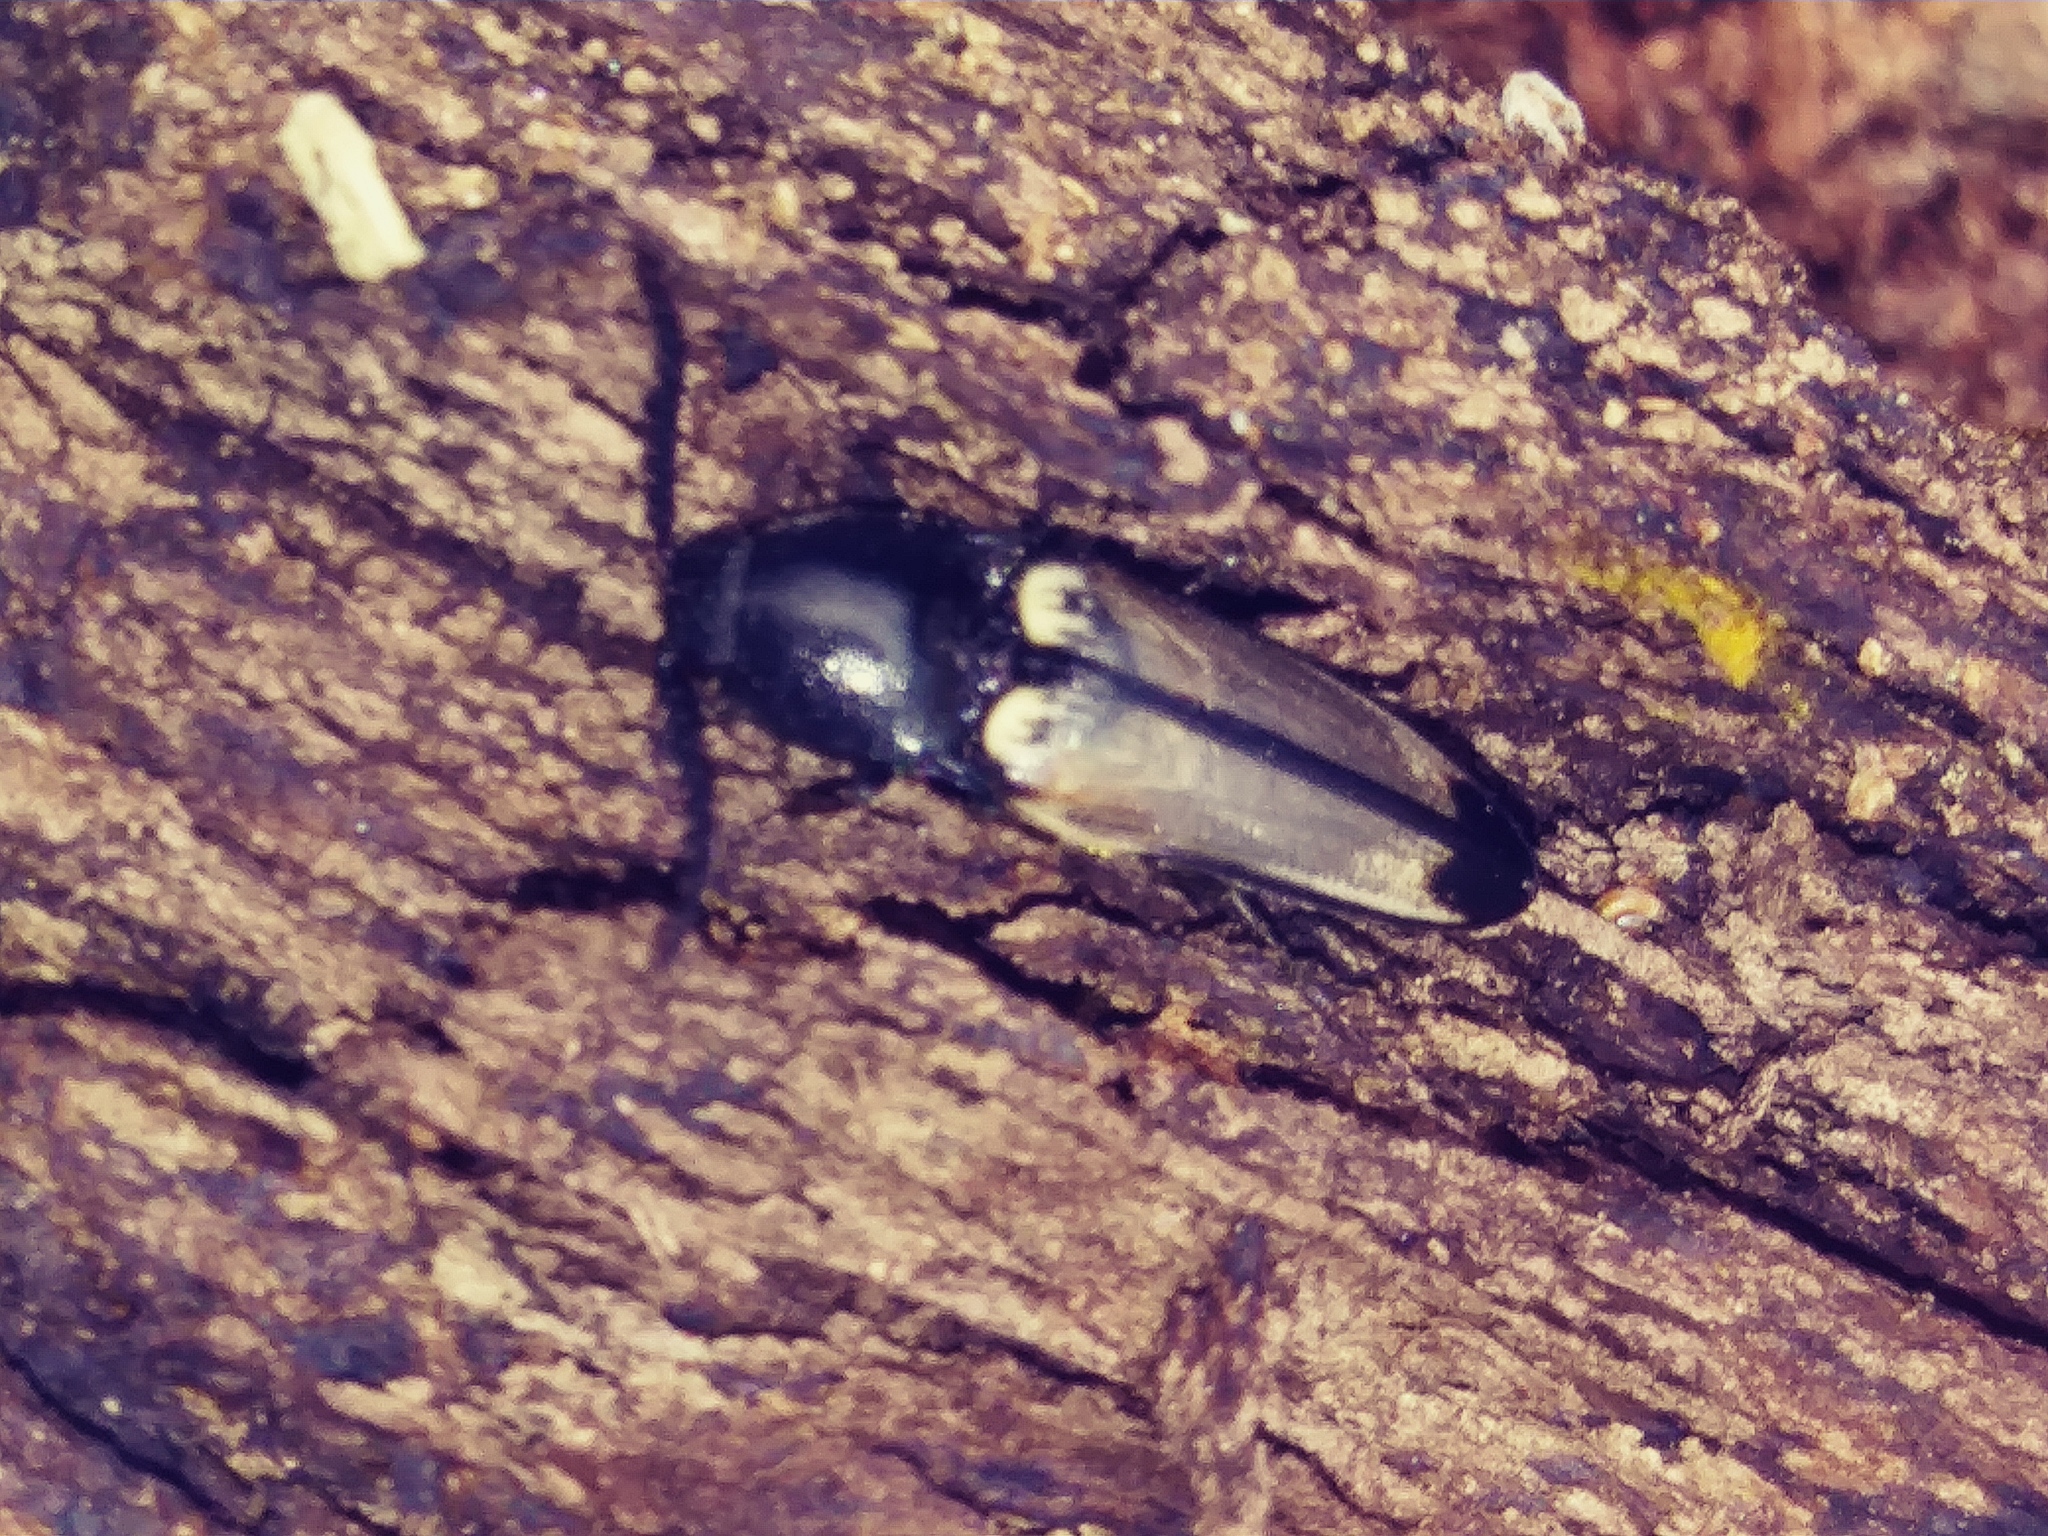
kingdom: Animalia
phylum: Arthropoda
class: Insecta
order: Coleoptera
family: Elateridae
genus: Ampedus
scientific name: Ampedus linteus
